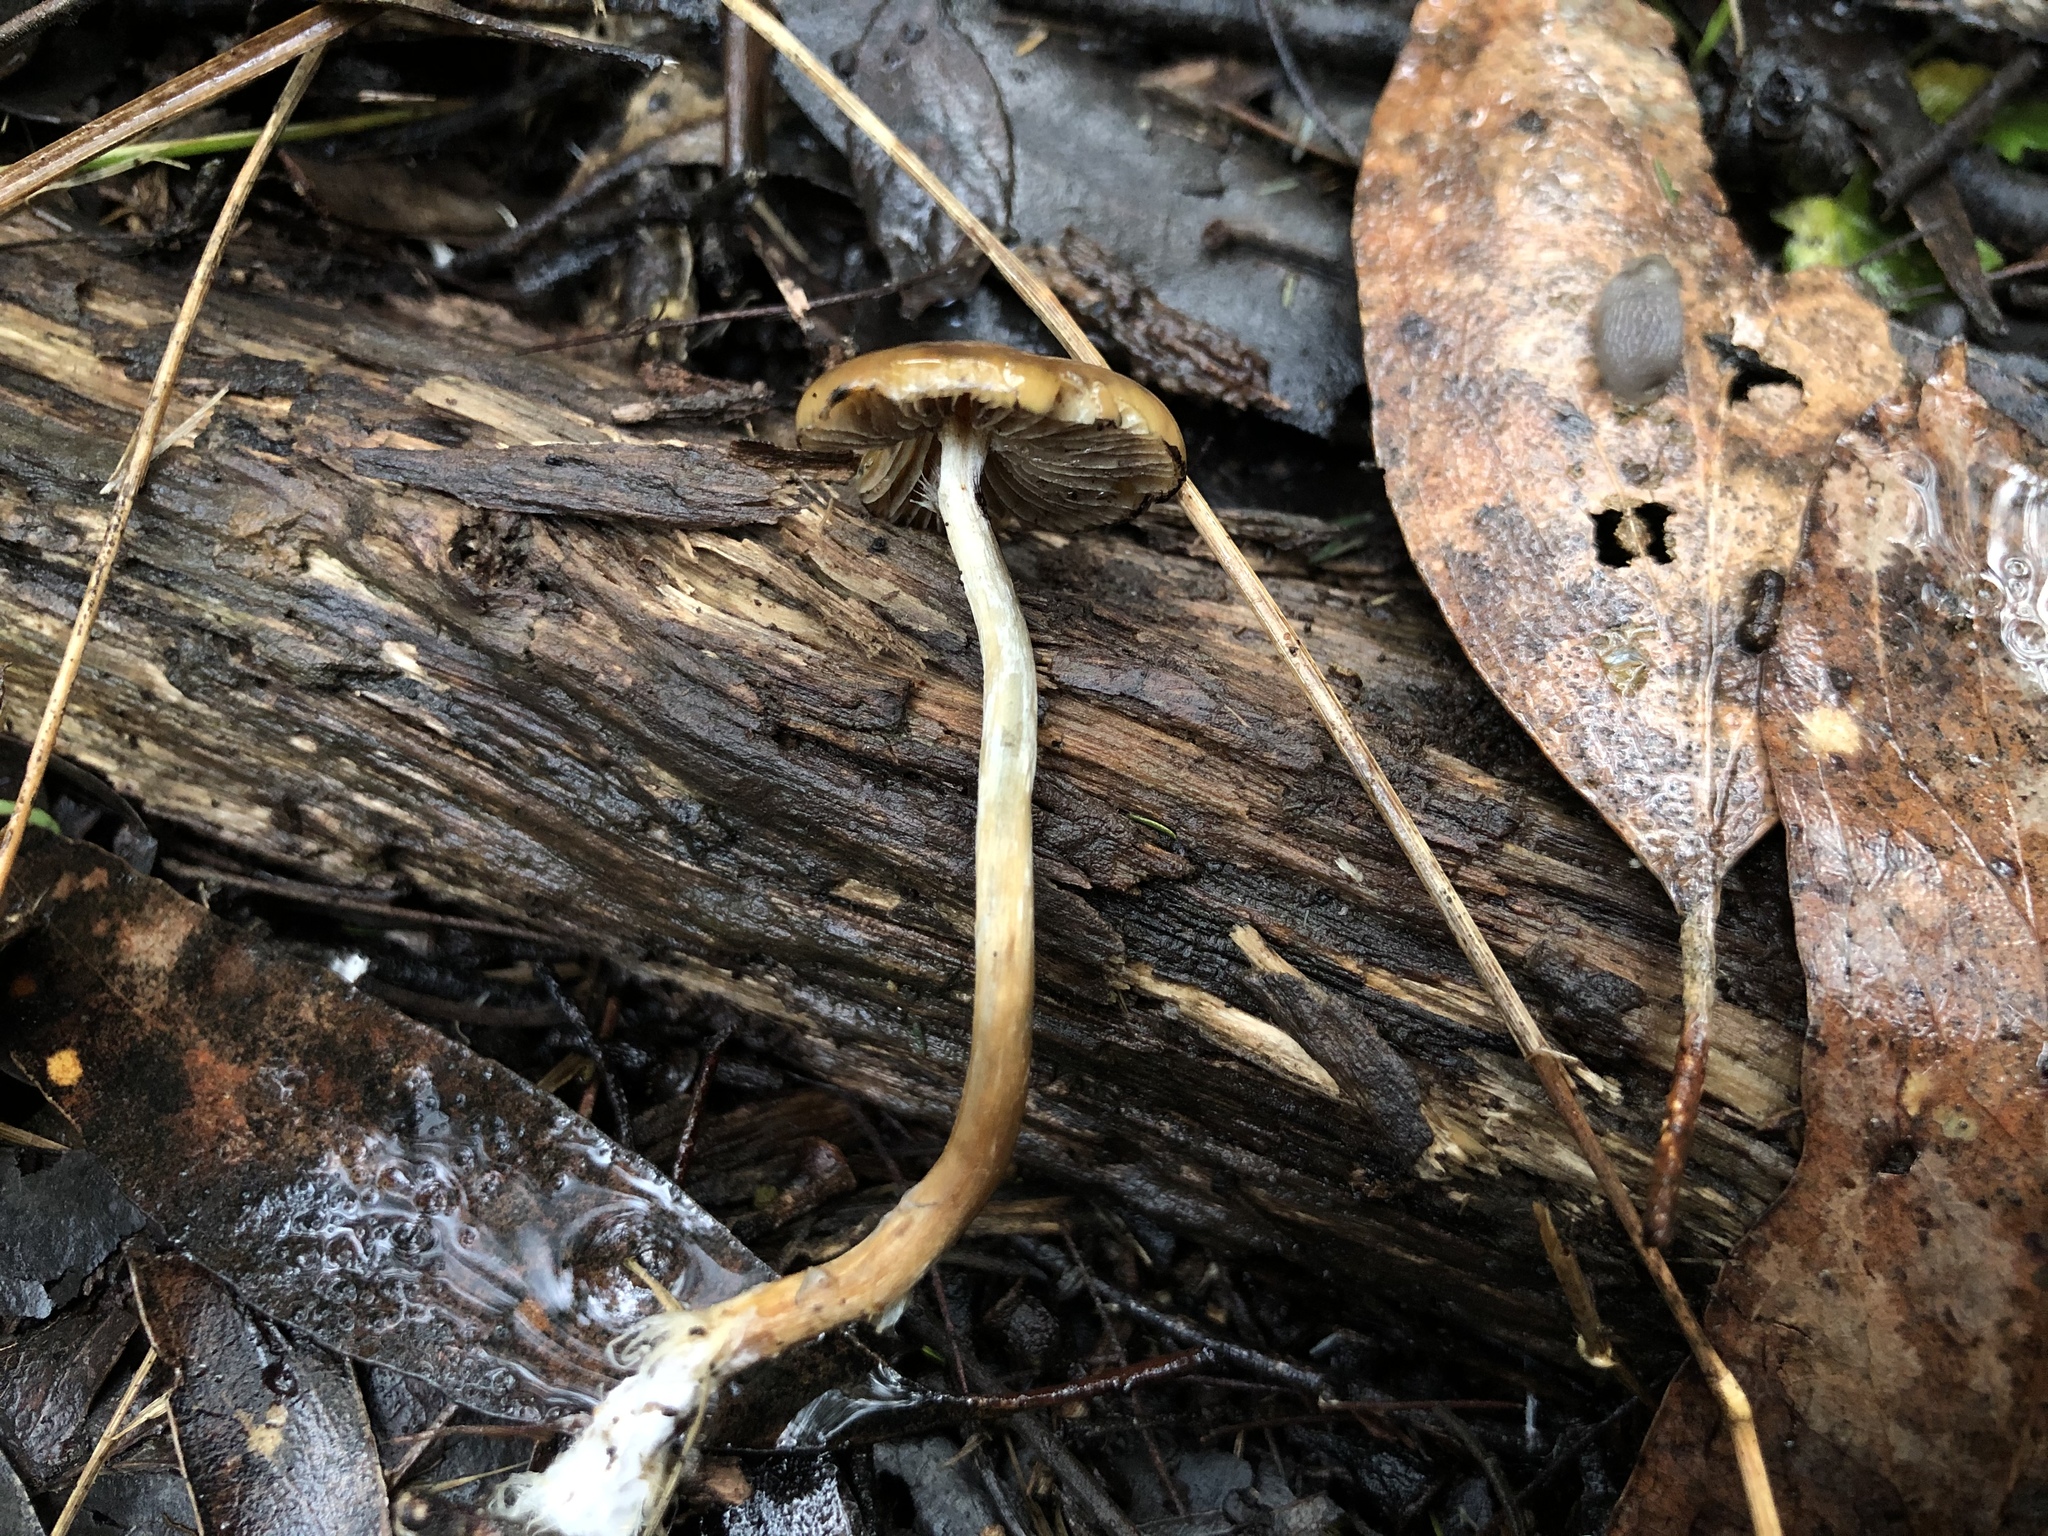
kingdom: Fungi
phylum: Basidiomycota
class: Agaricomycetes
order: Agaricales
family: Hymenogastraceae
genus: Psilocybe
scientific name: Psilocybe subaeruginosa
